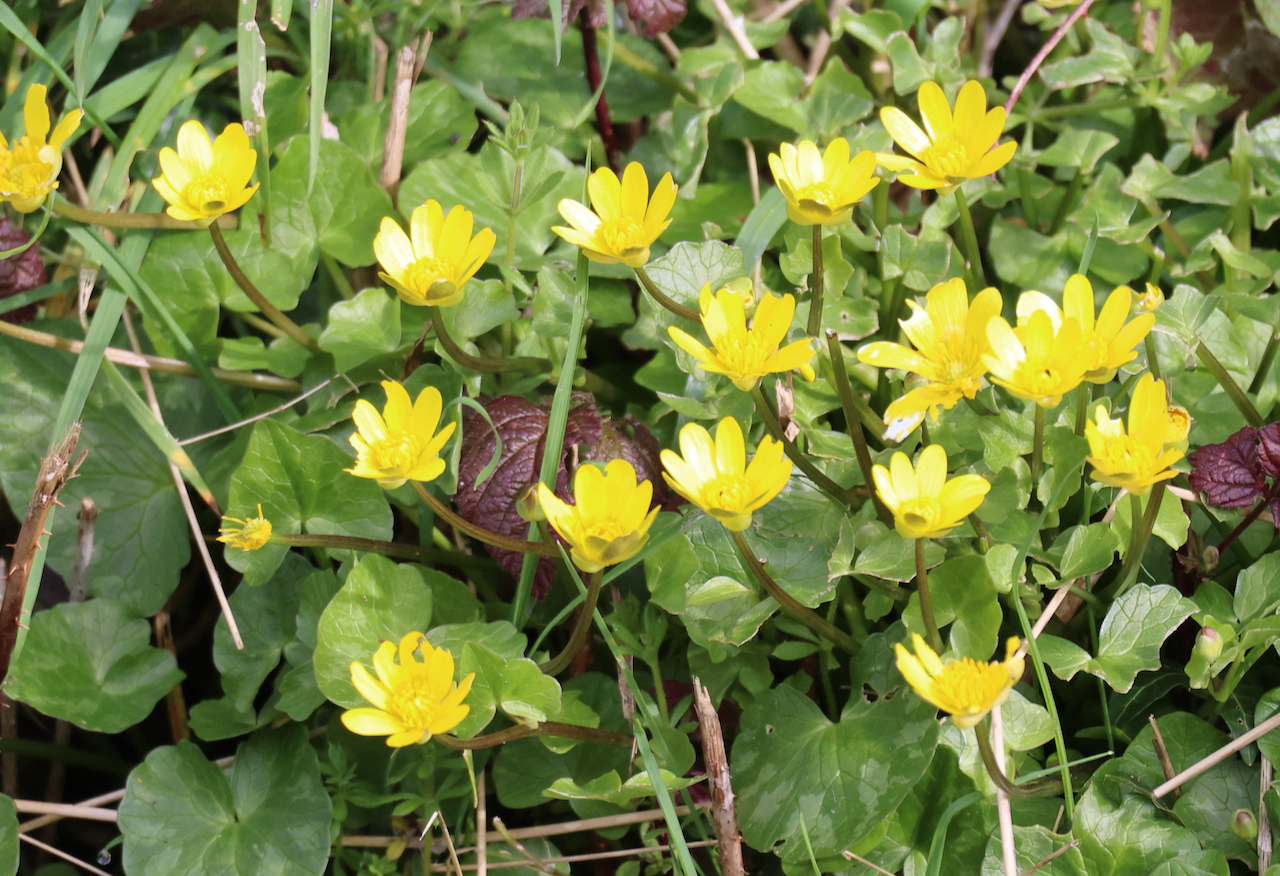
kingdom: Plantae
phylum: Tracheophyta
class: Magnoliopsida
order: Ranunculales
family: Ranunculaceae
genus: Ficaria
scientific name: Ficaria verna
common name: Lesser celandine
